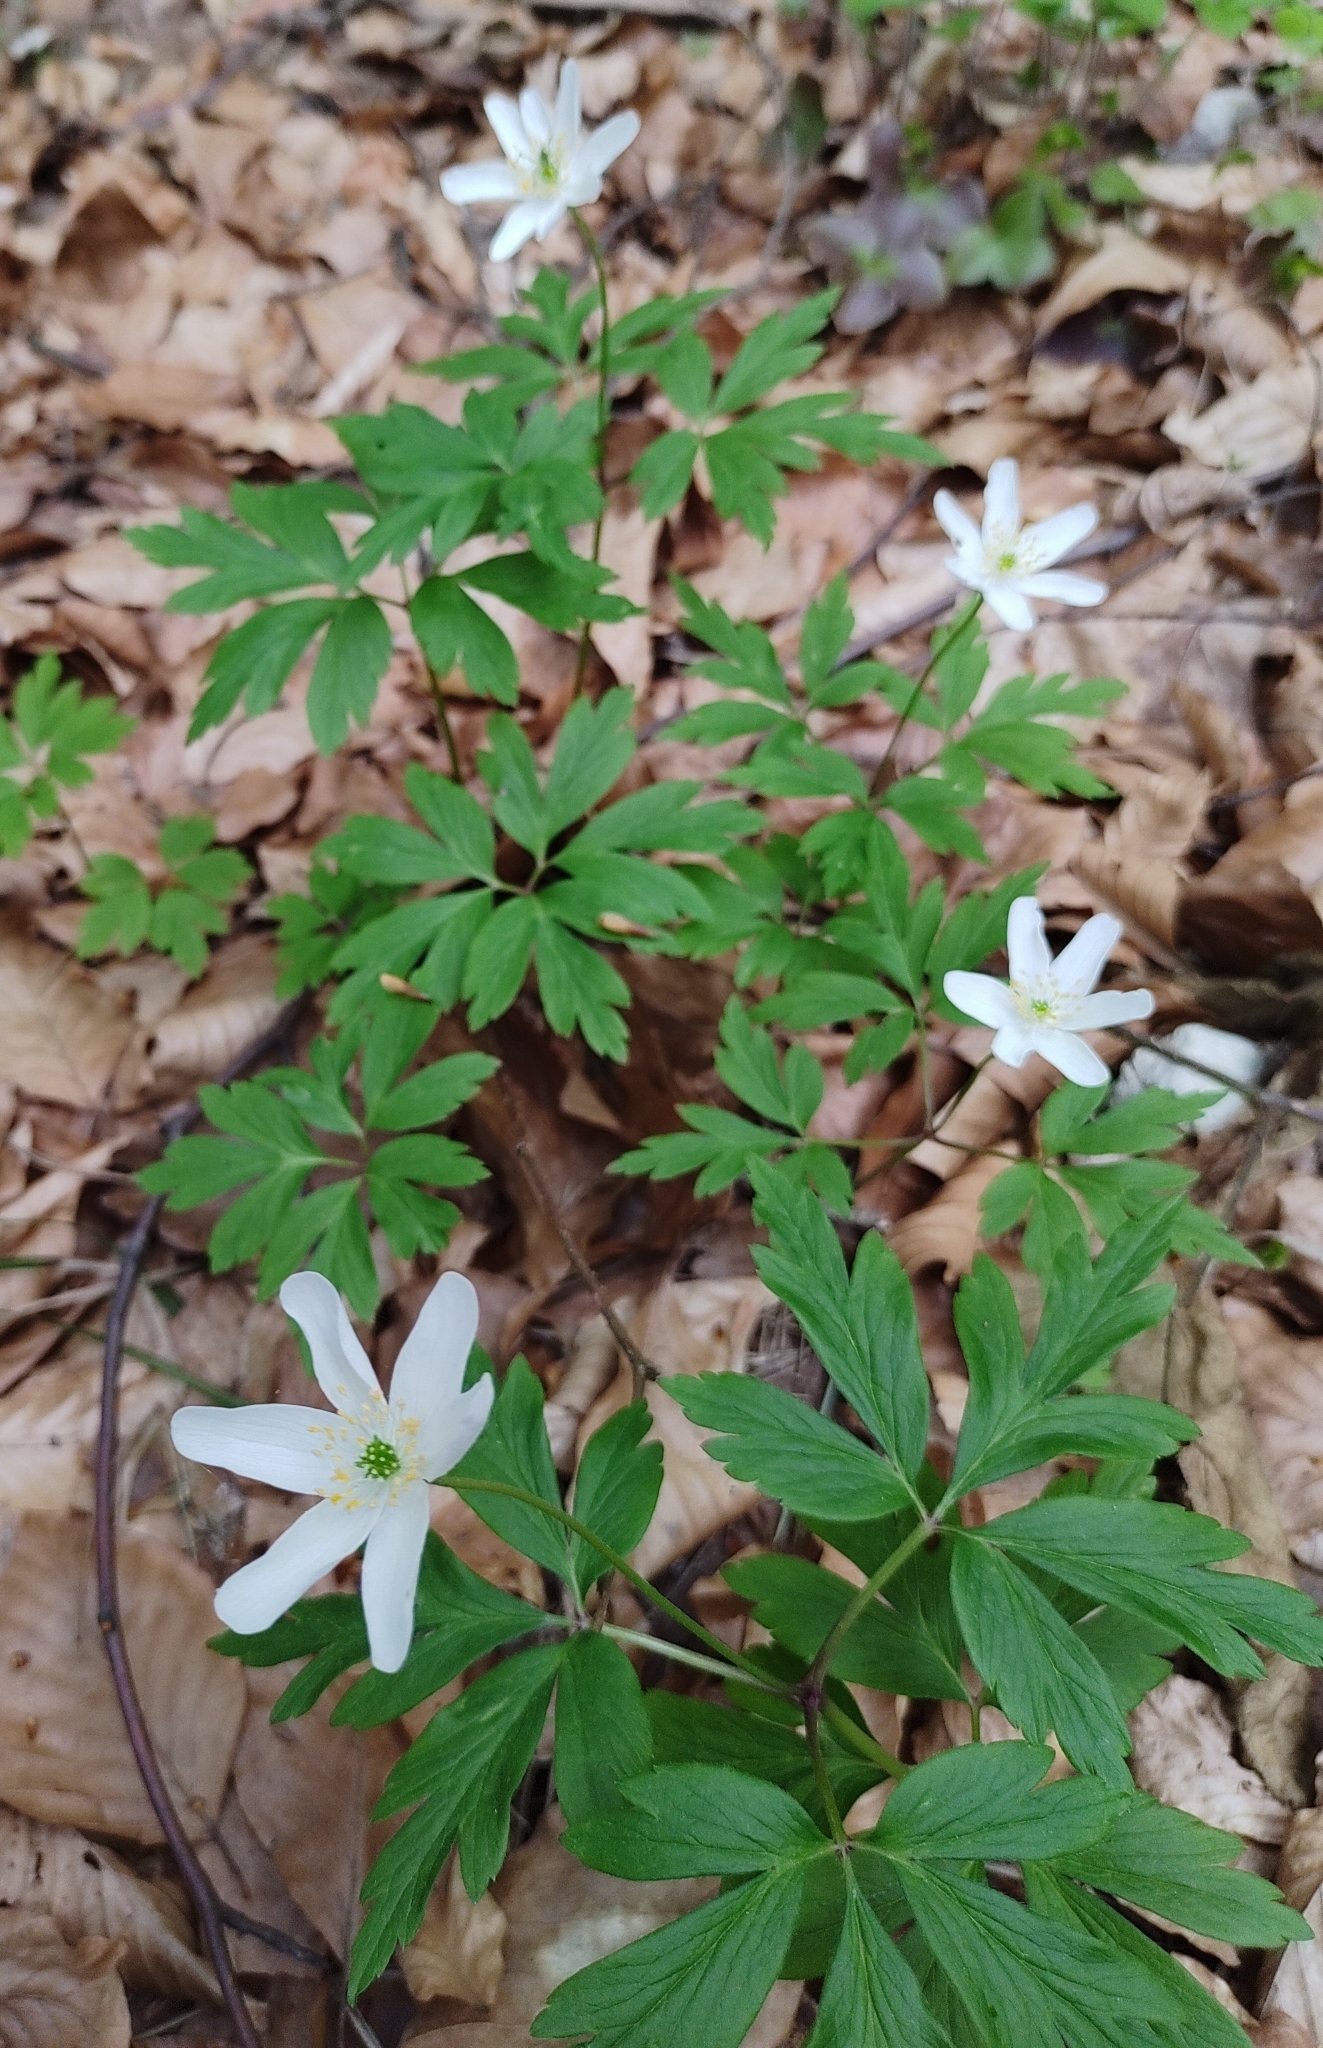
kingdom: Plantae
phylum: Tracheophyta
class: Magnoliopsida
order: Ranunculales
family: Ranunculaceae
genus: Anemone
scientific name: Anemone nemorosa
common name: Wood anemone
